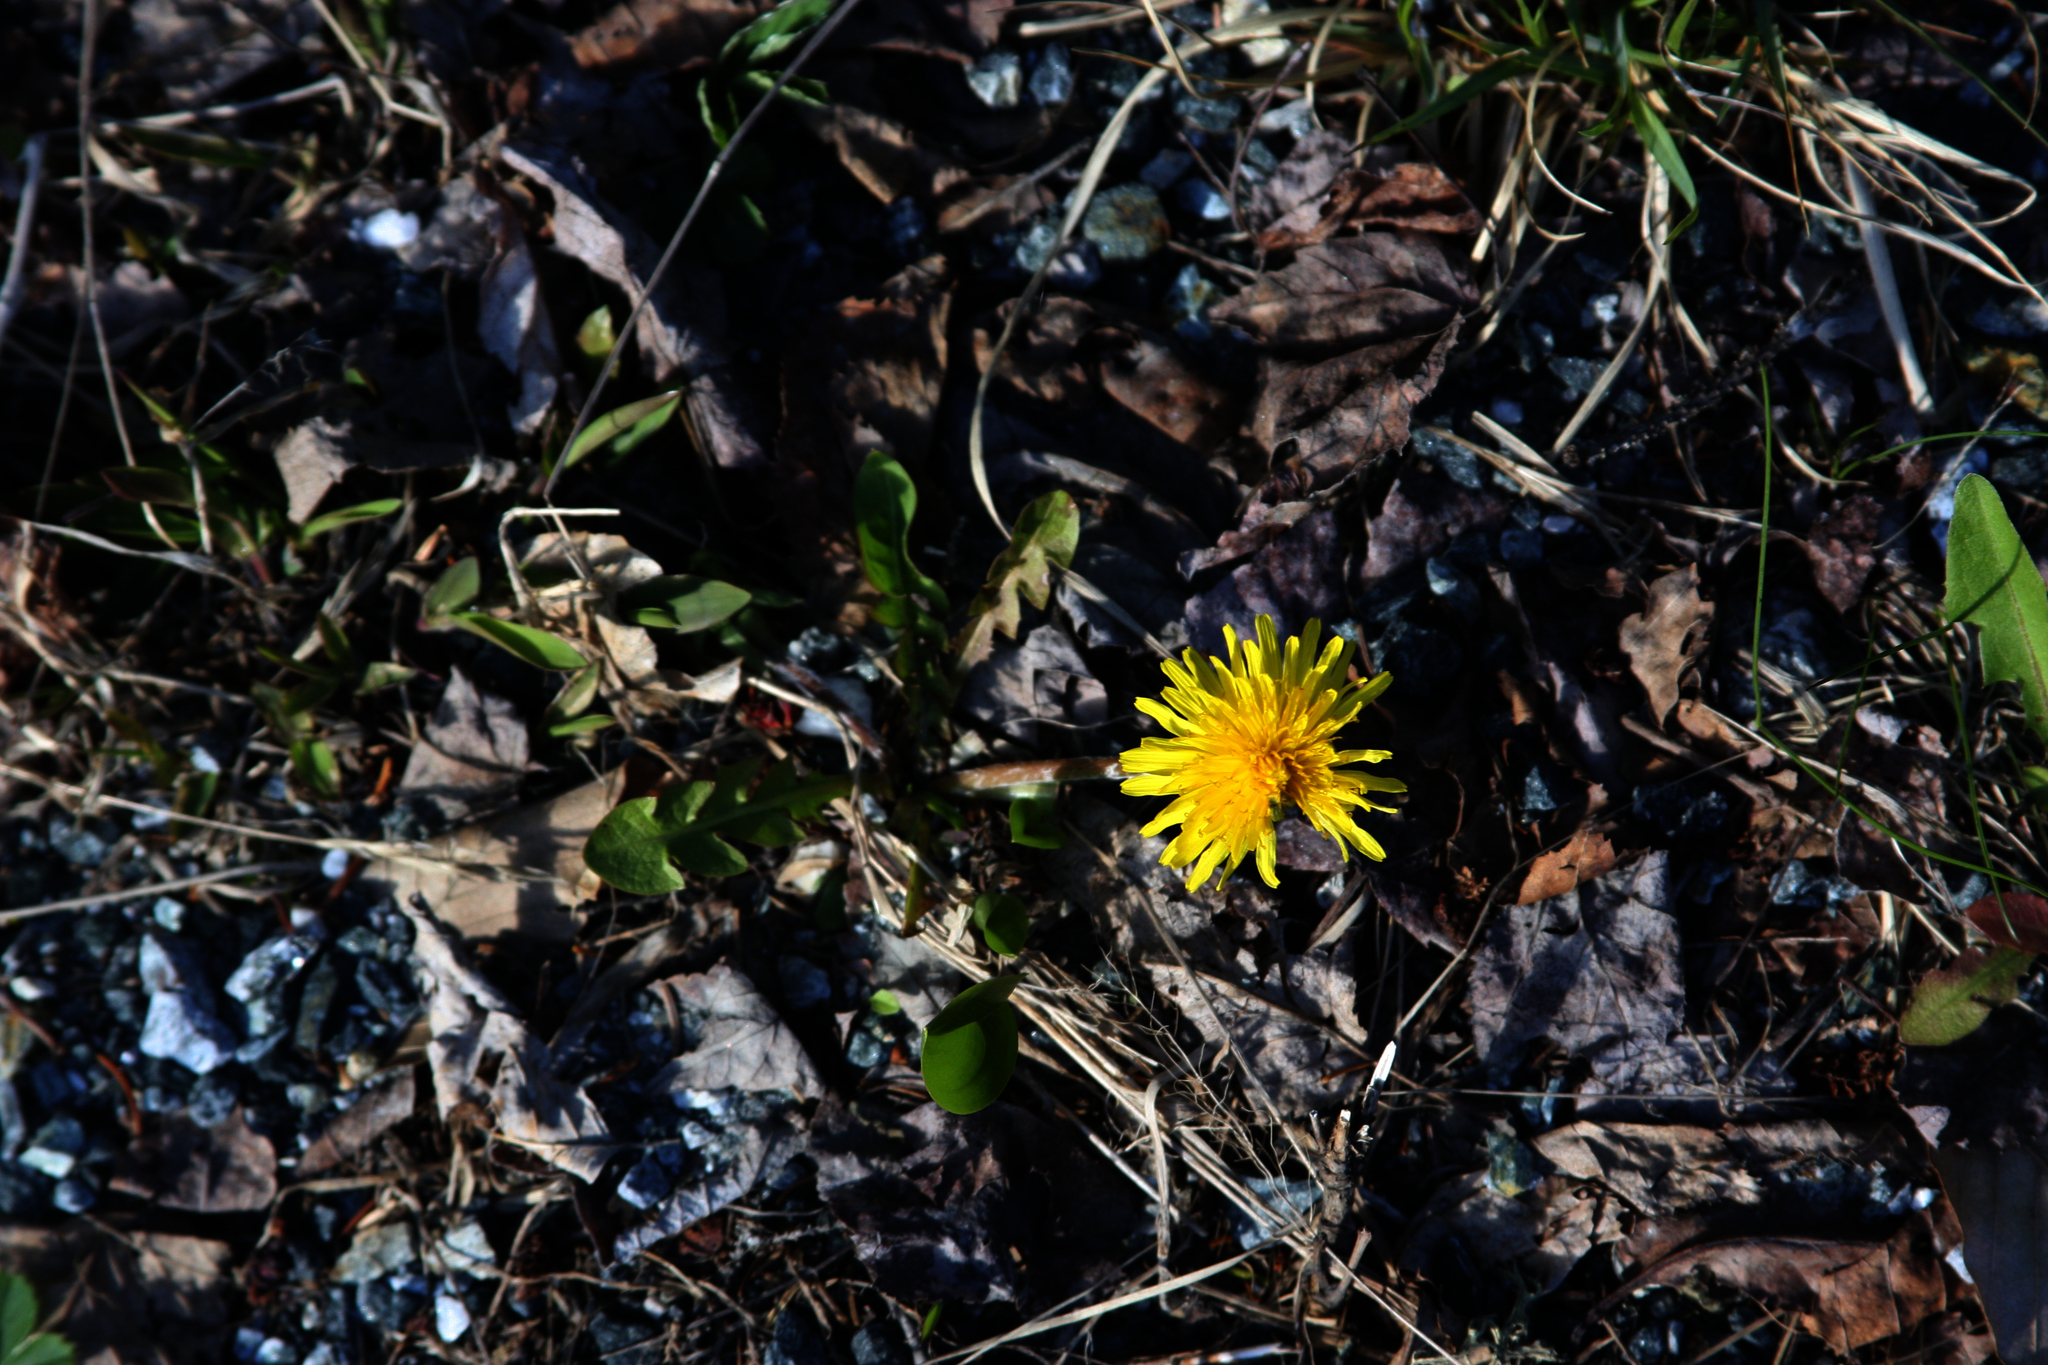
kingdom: Plantae
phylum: Tracheophyta
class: Magnoliopsida
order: Asterales
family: Asteraceae
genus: Taraxacum
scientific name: Taraxacum officinale
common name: Common dandelion
